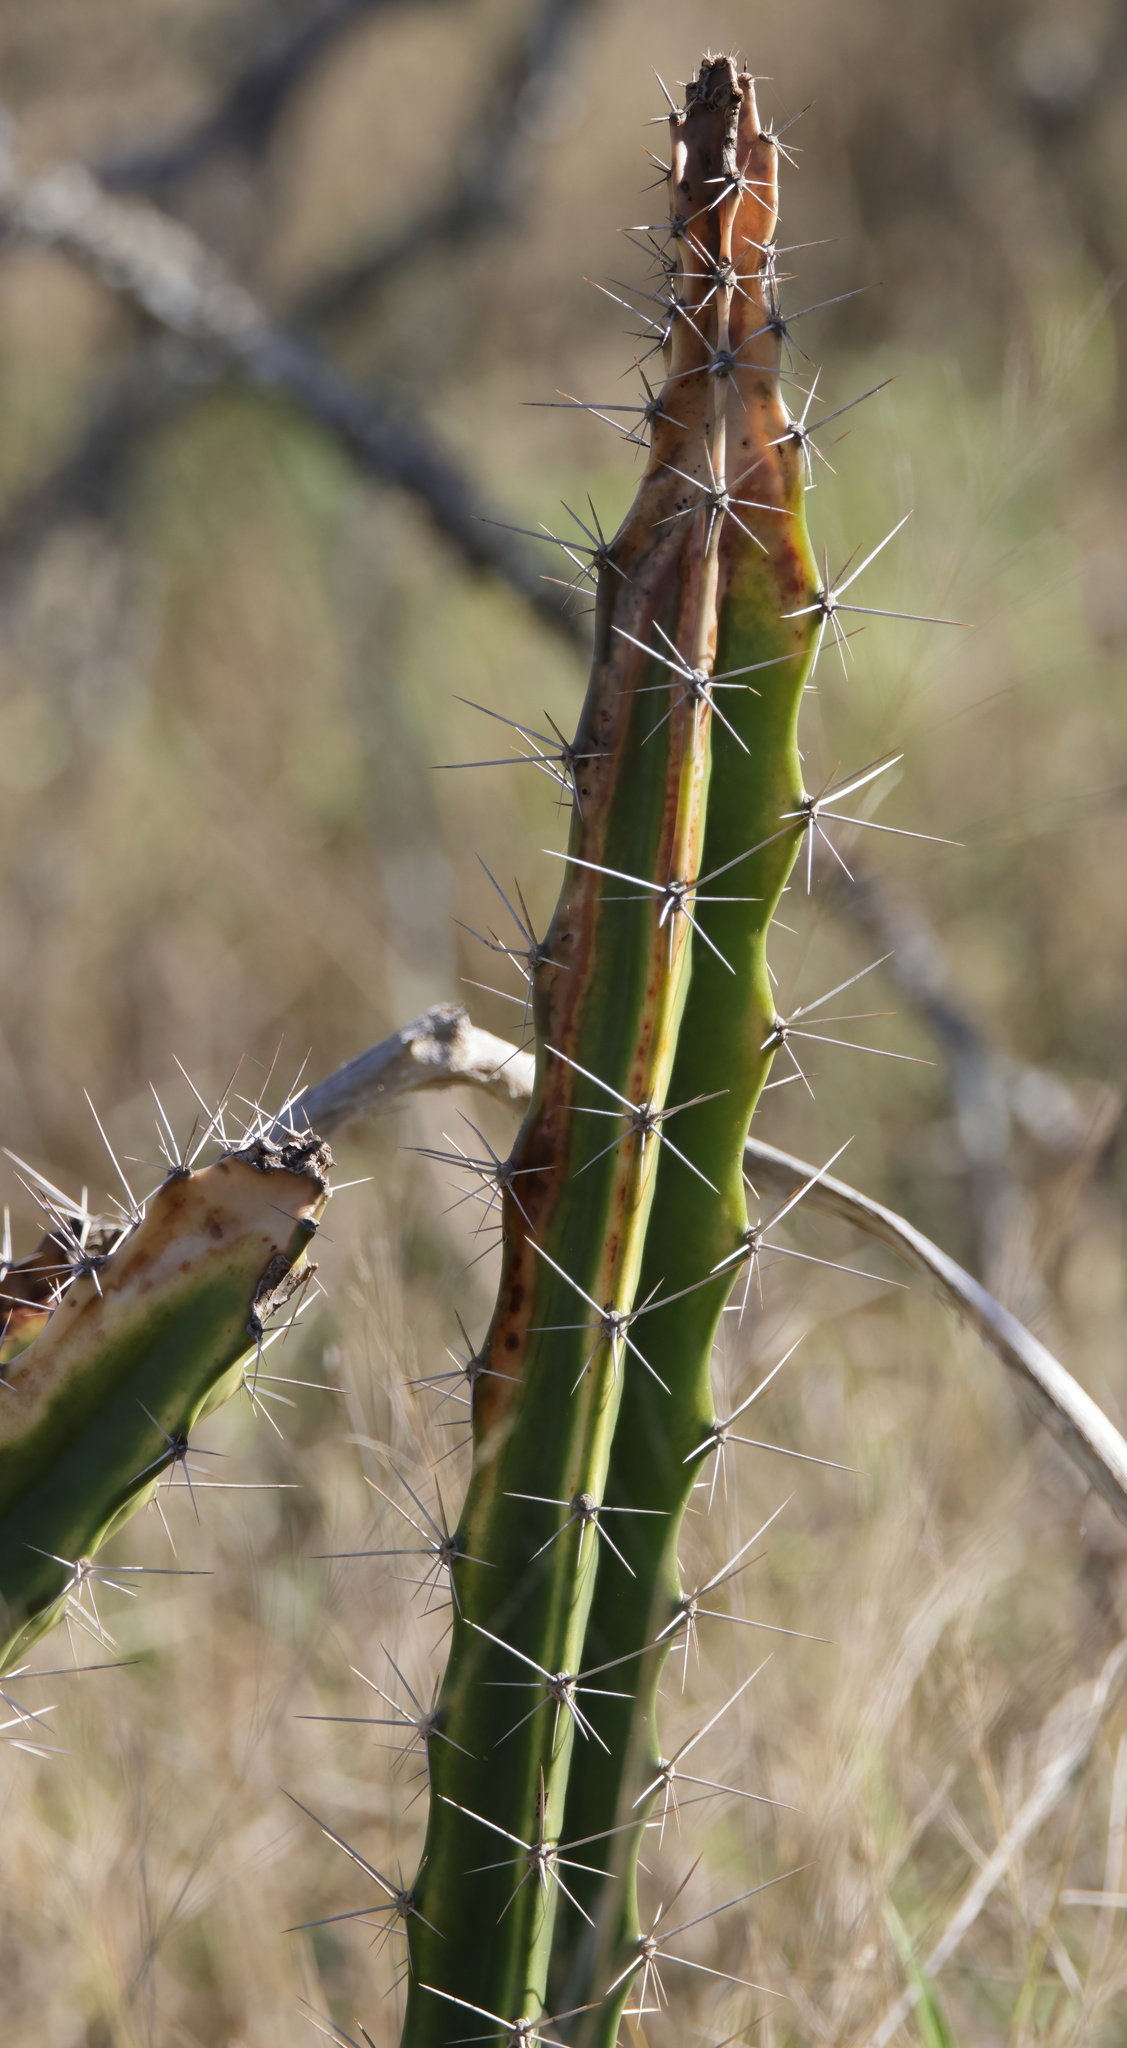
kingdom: Plantae
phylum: Tracheophyta
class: Magnoliopsida
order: Caryophyllales
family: Cactaceae
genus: Acanthocereus
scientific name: Acanthocereus tetragonus
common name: Triangle cactus
